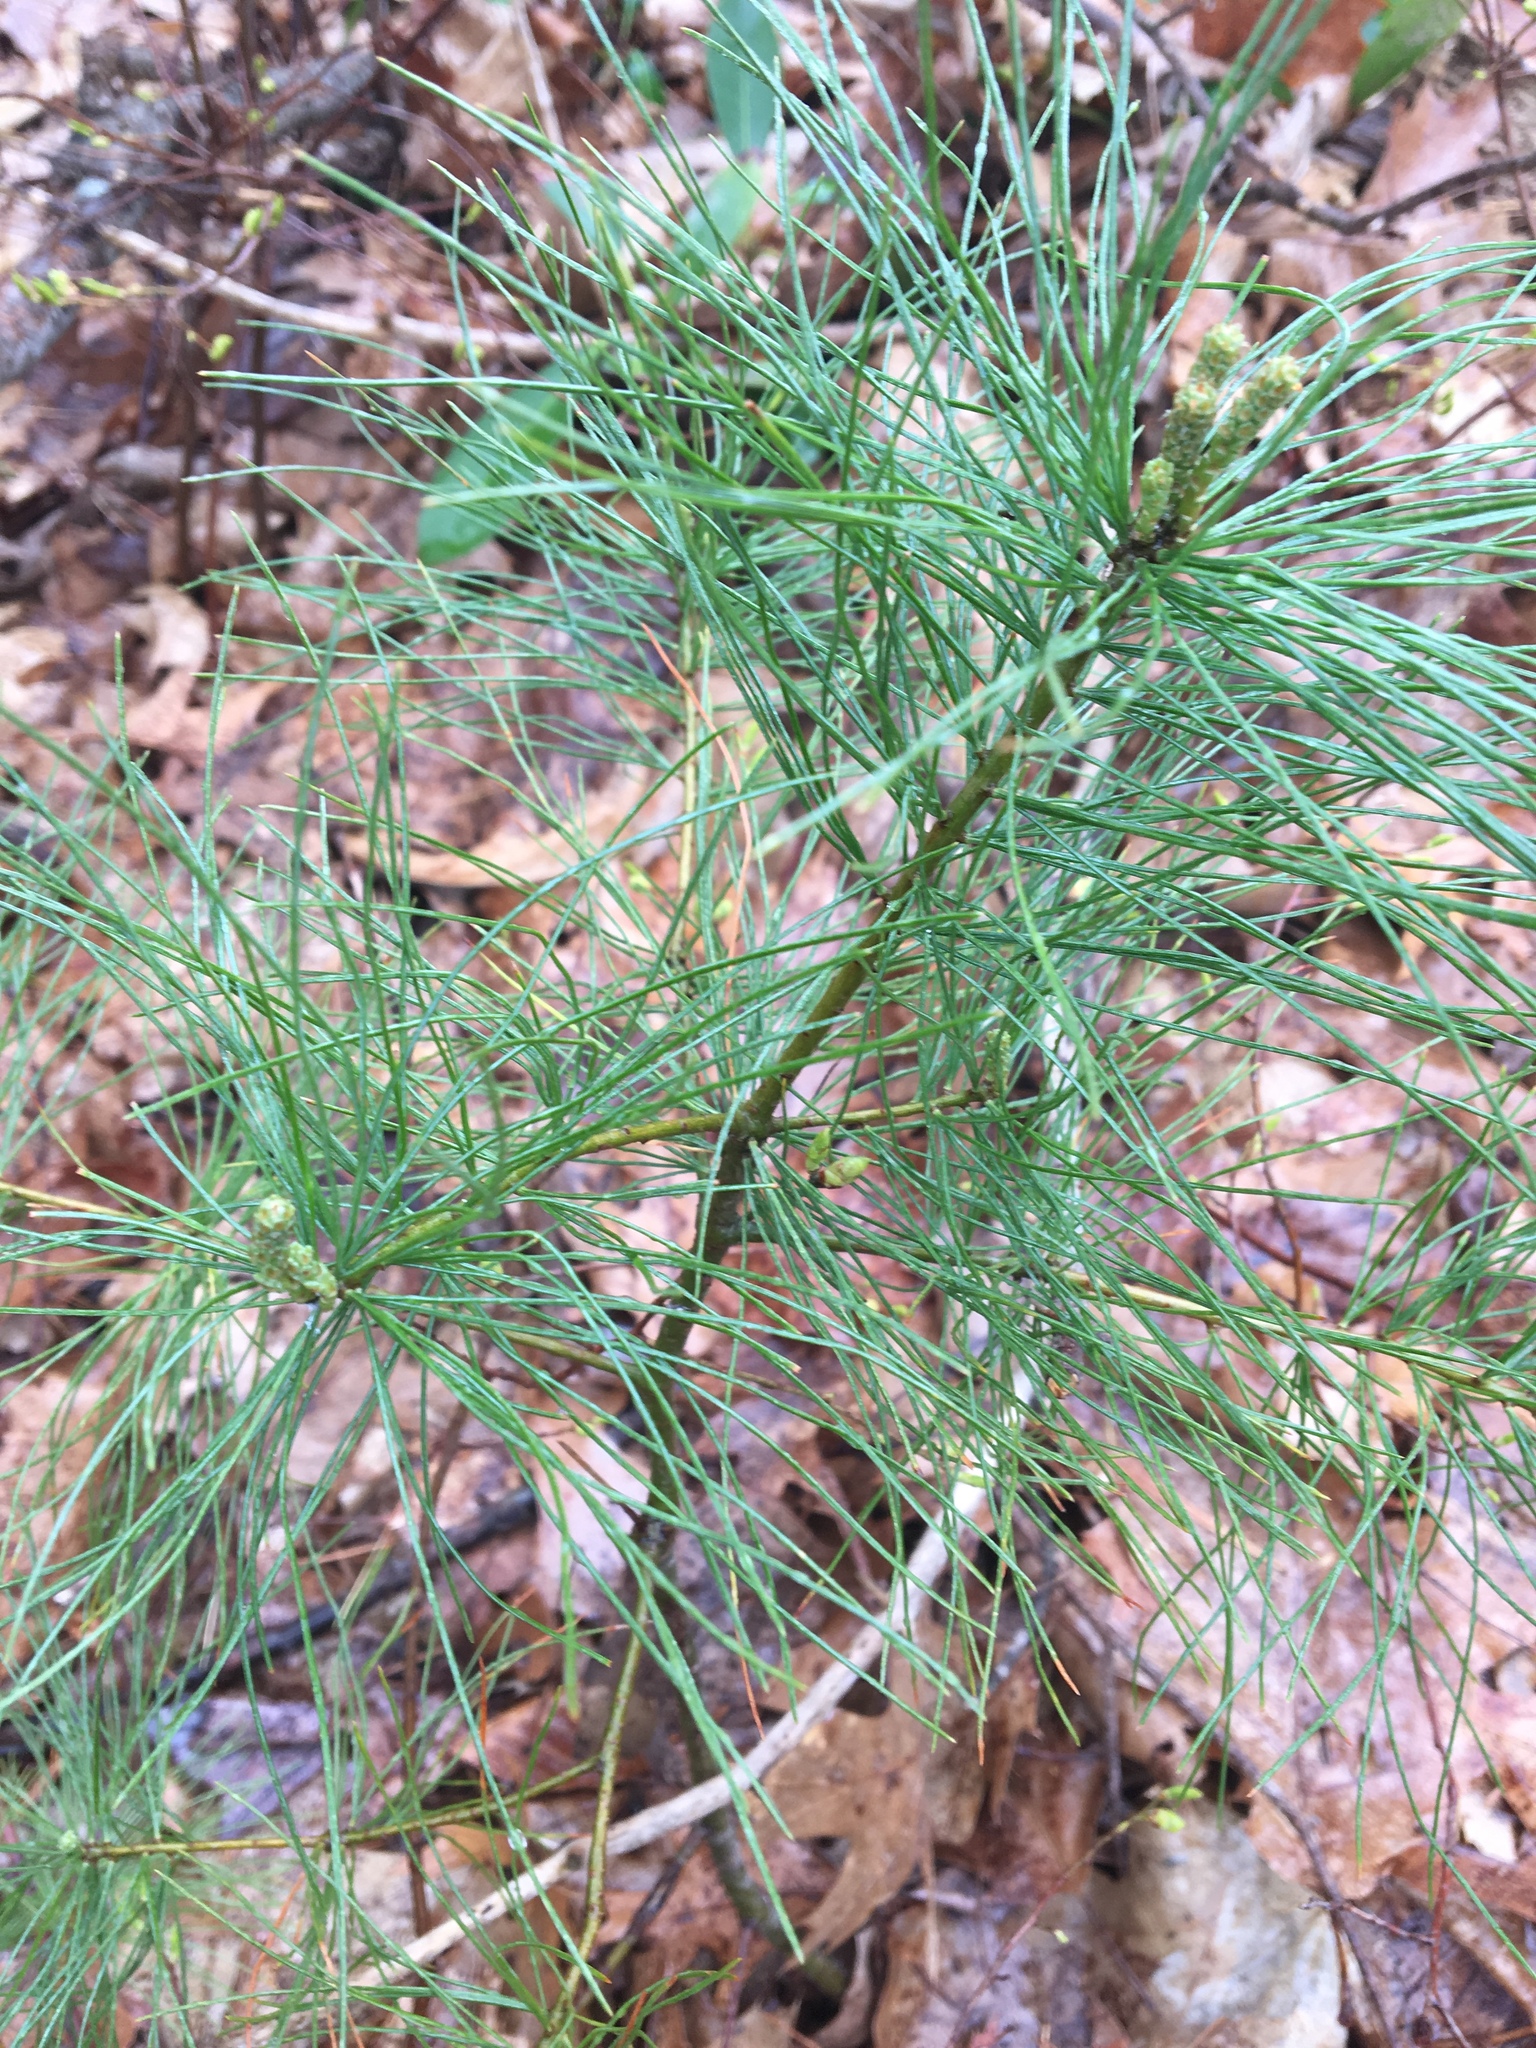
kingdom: Plantae
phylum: Tracheophyta
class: Pinopsida
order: Pinales
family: Pinaceae
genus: Pinus
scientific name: Pinus strobus
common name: Weymouth pine
